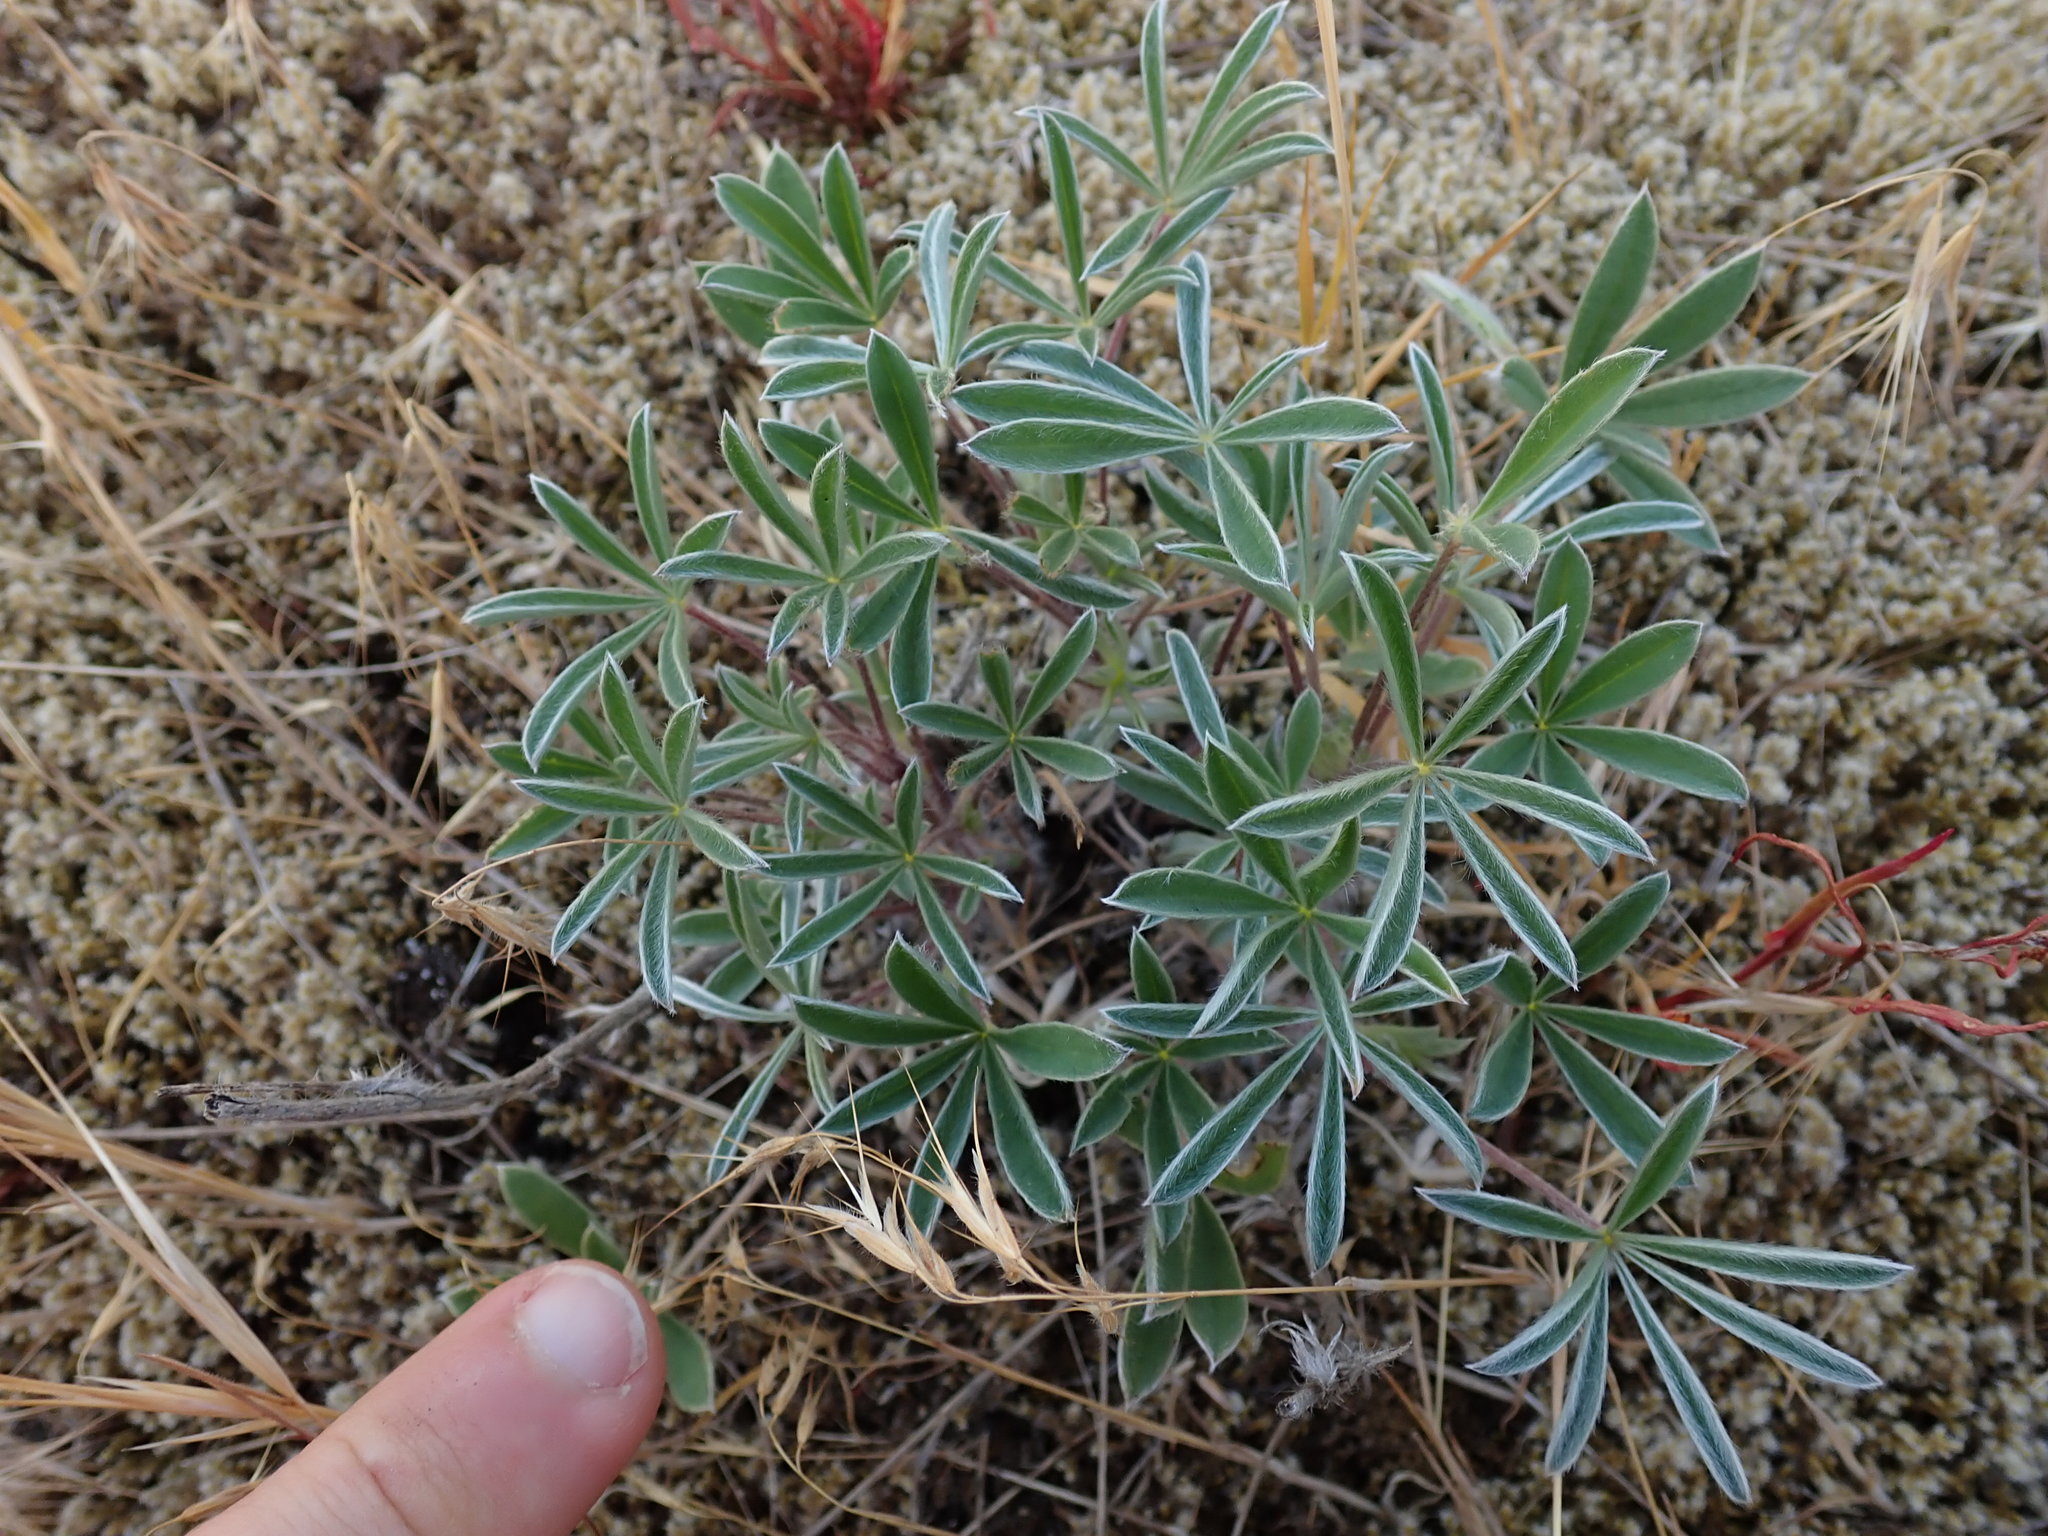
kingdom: Plantae
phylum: Tracheophyta
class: Magnoliopsida
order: Fabales
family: Fabaceae
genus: Lupinus
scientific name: Lupinus littoralis
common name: Seashore lupine
